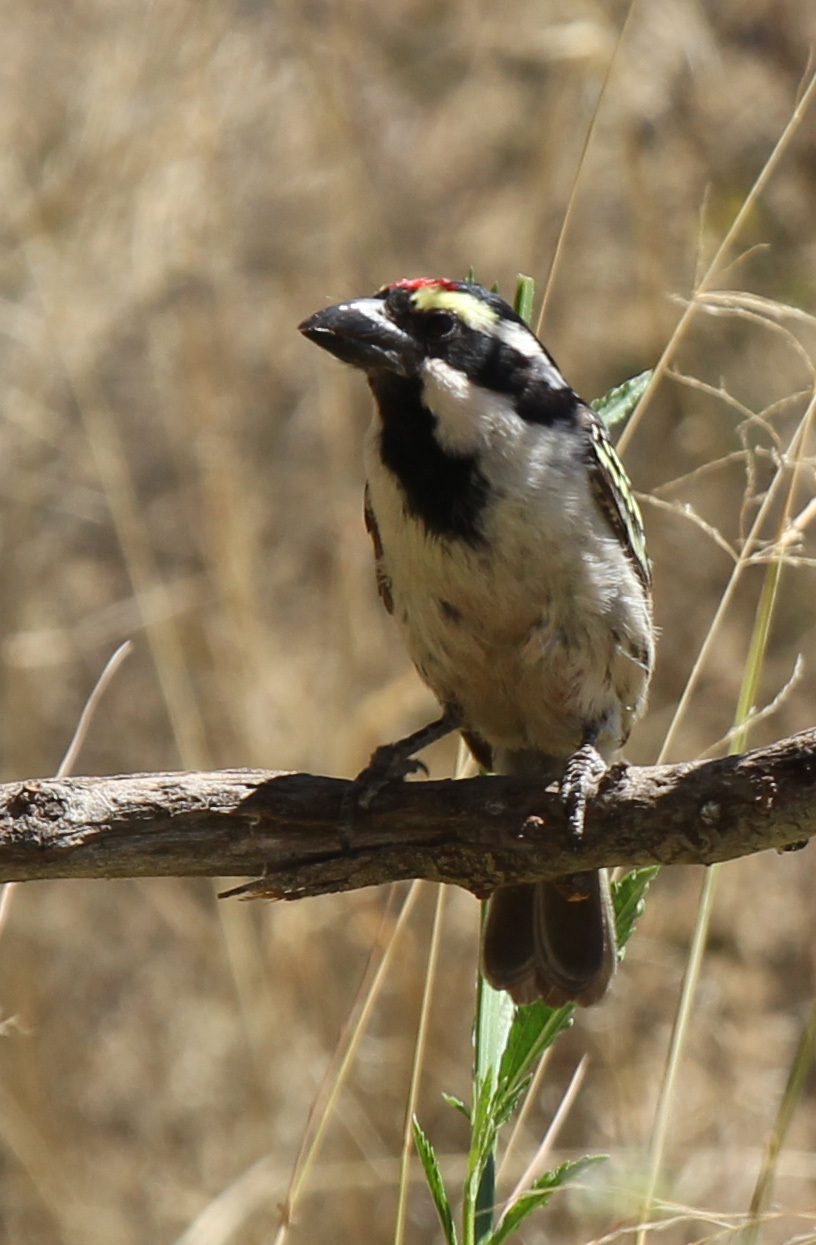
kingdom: Animalia
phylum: Chordata
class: Aves
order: Piciformes
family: Lybiidae
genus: Tricholaema
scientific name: Tricholaema leucomelas
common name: Acacia pied barbet
